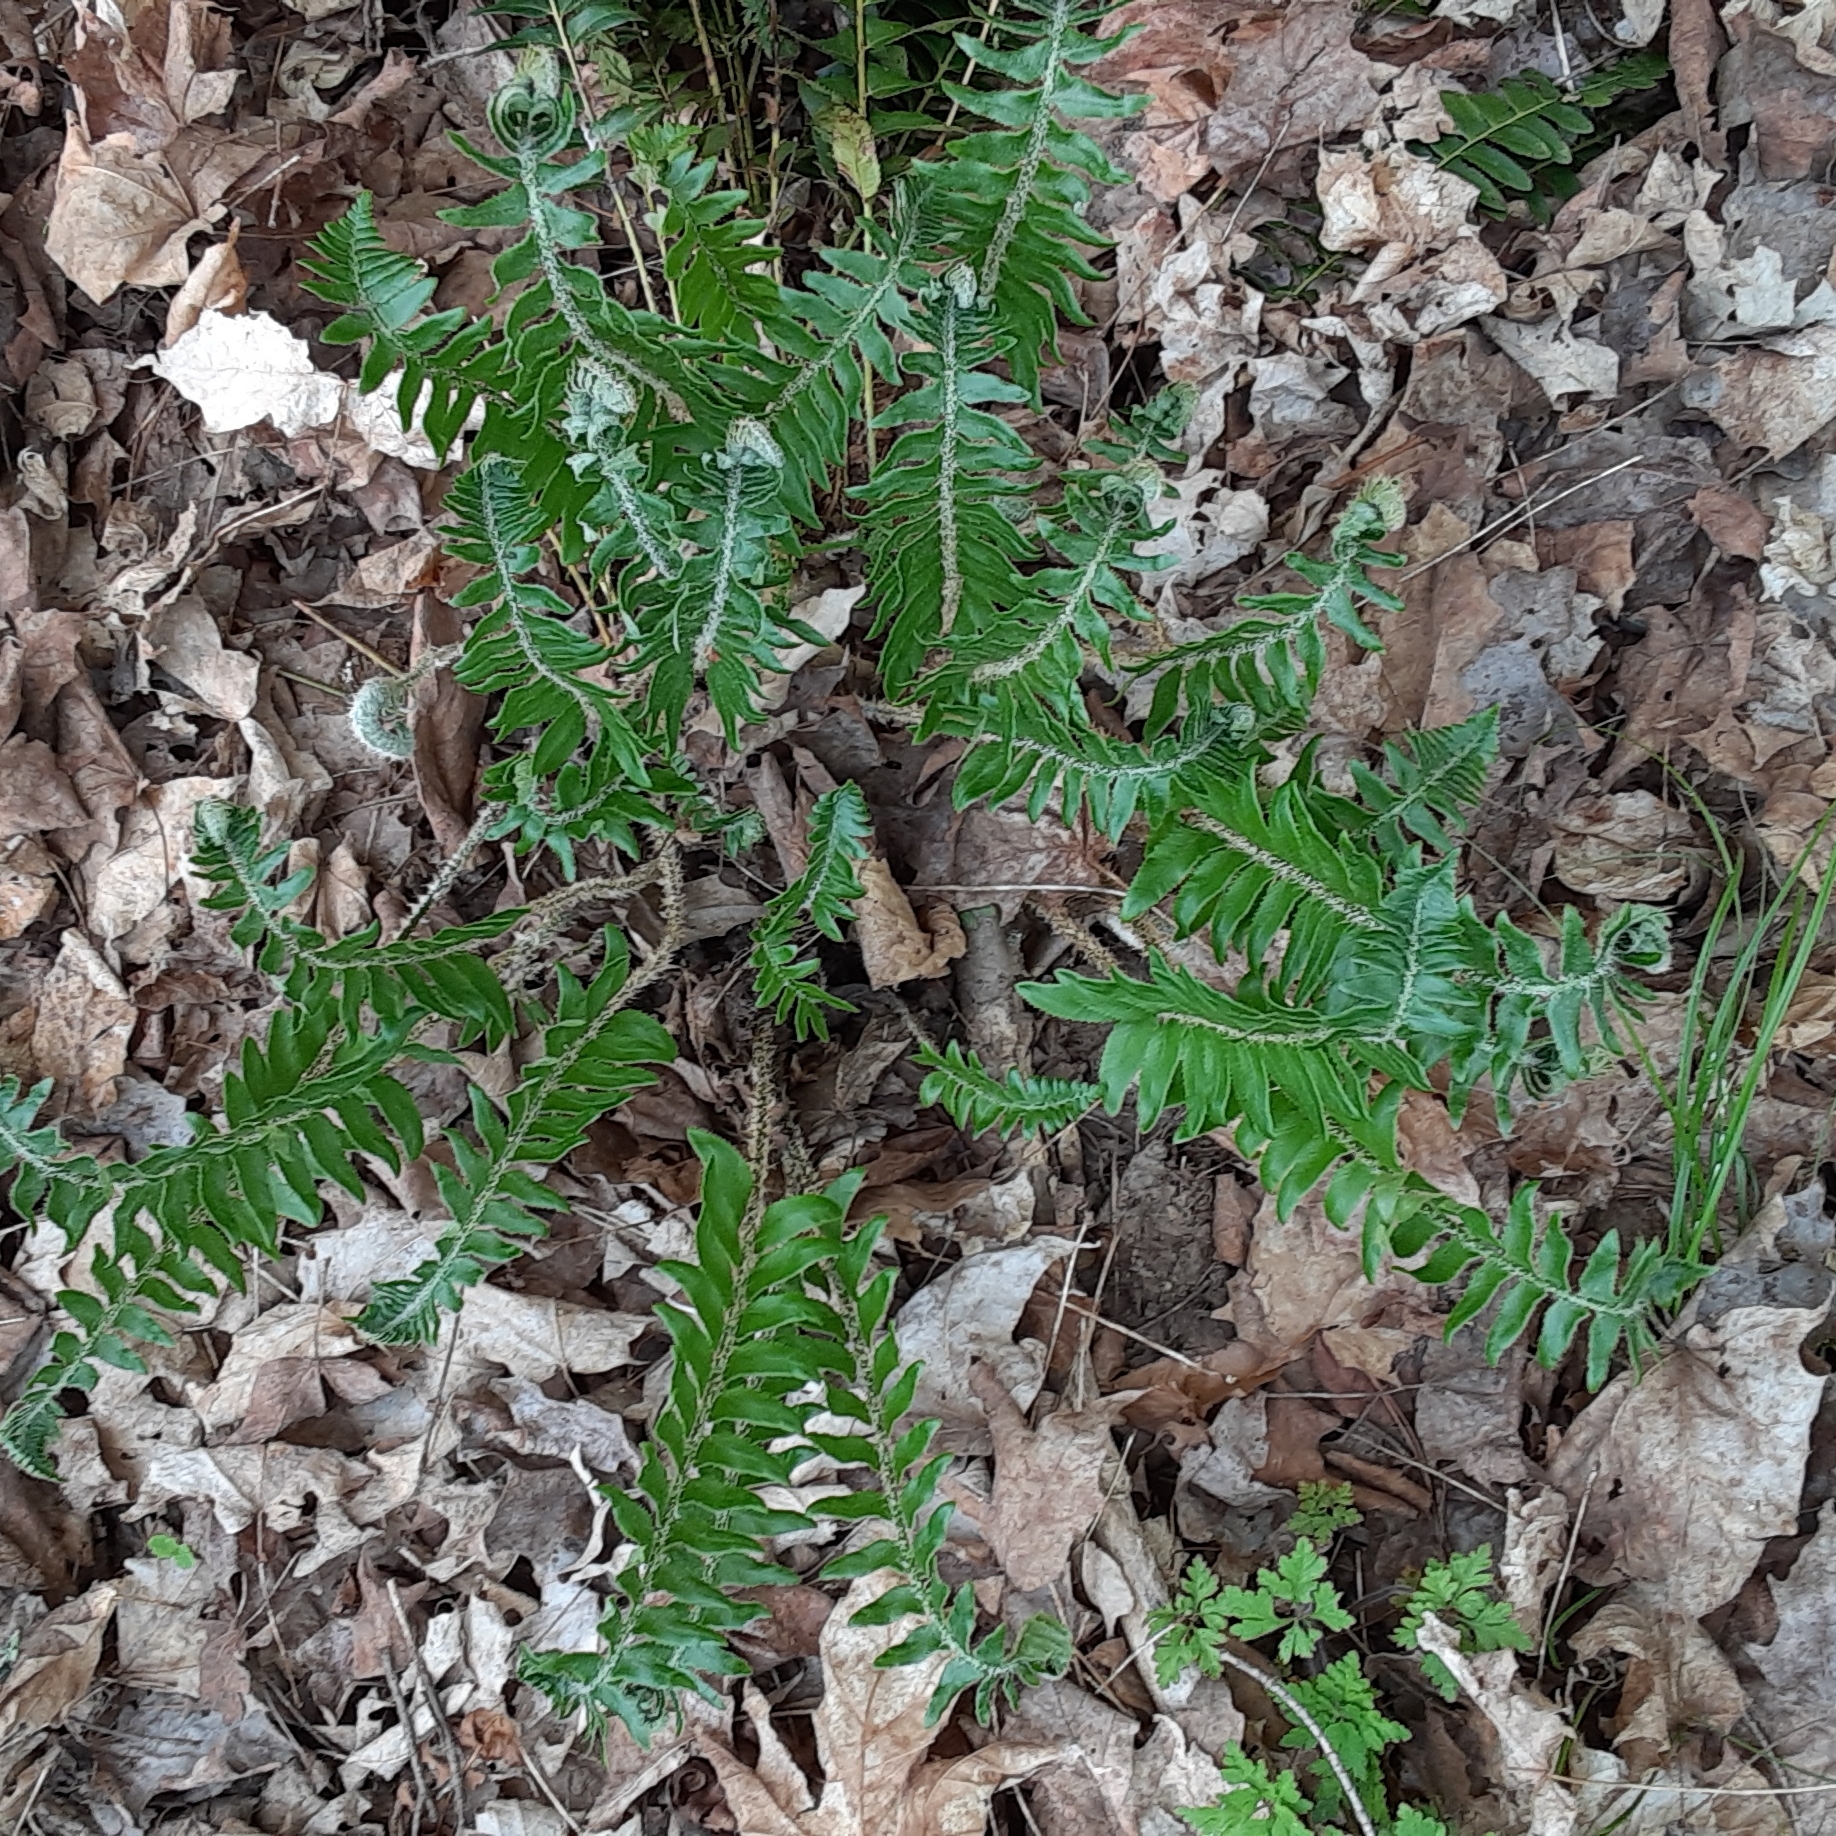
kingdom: Plantae
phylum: Tracheophyta
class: Polypodiopsida
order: Polypodiales
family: Dryopteridaceae
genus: Polystichum
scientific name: Polystichum acrostichoides
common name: Christmas fern
